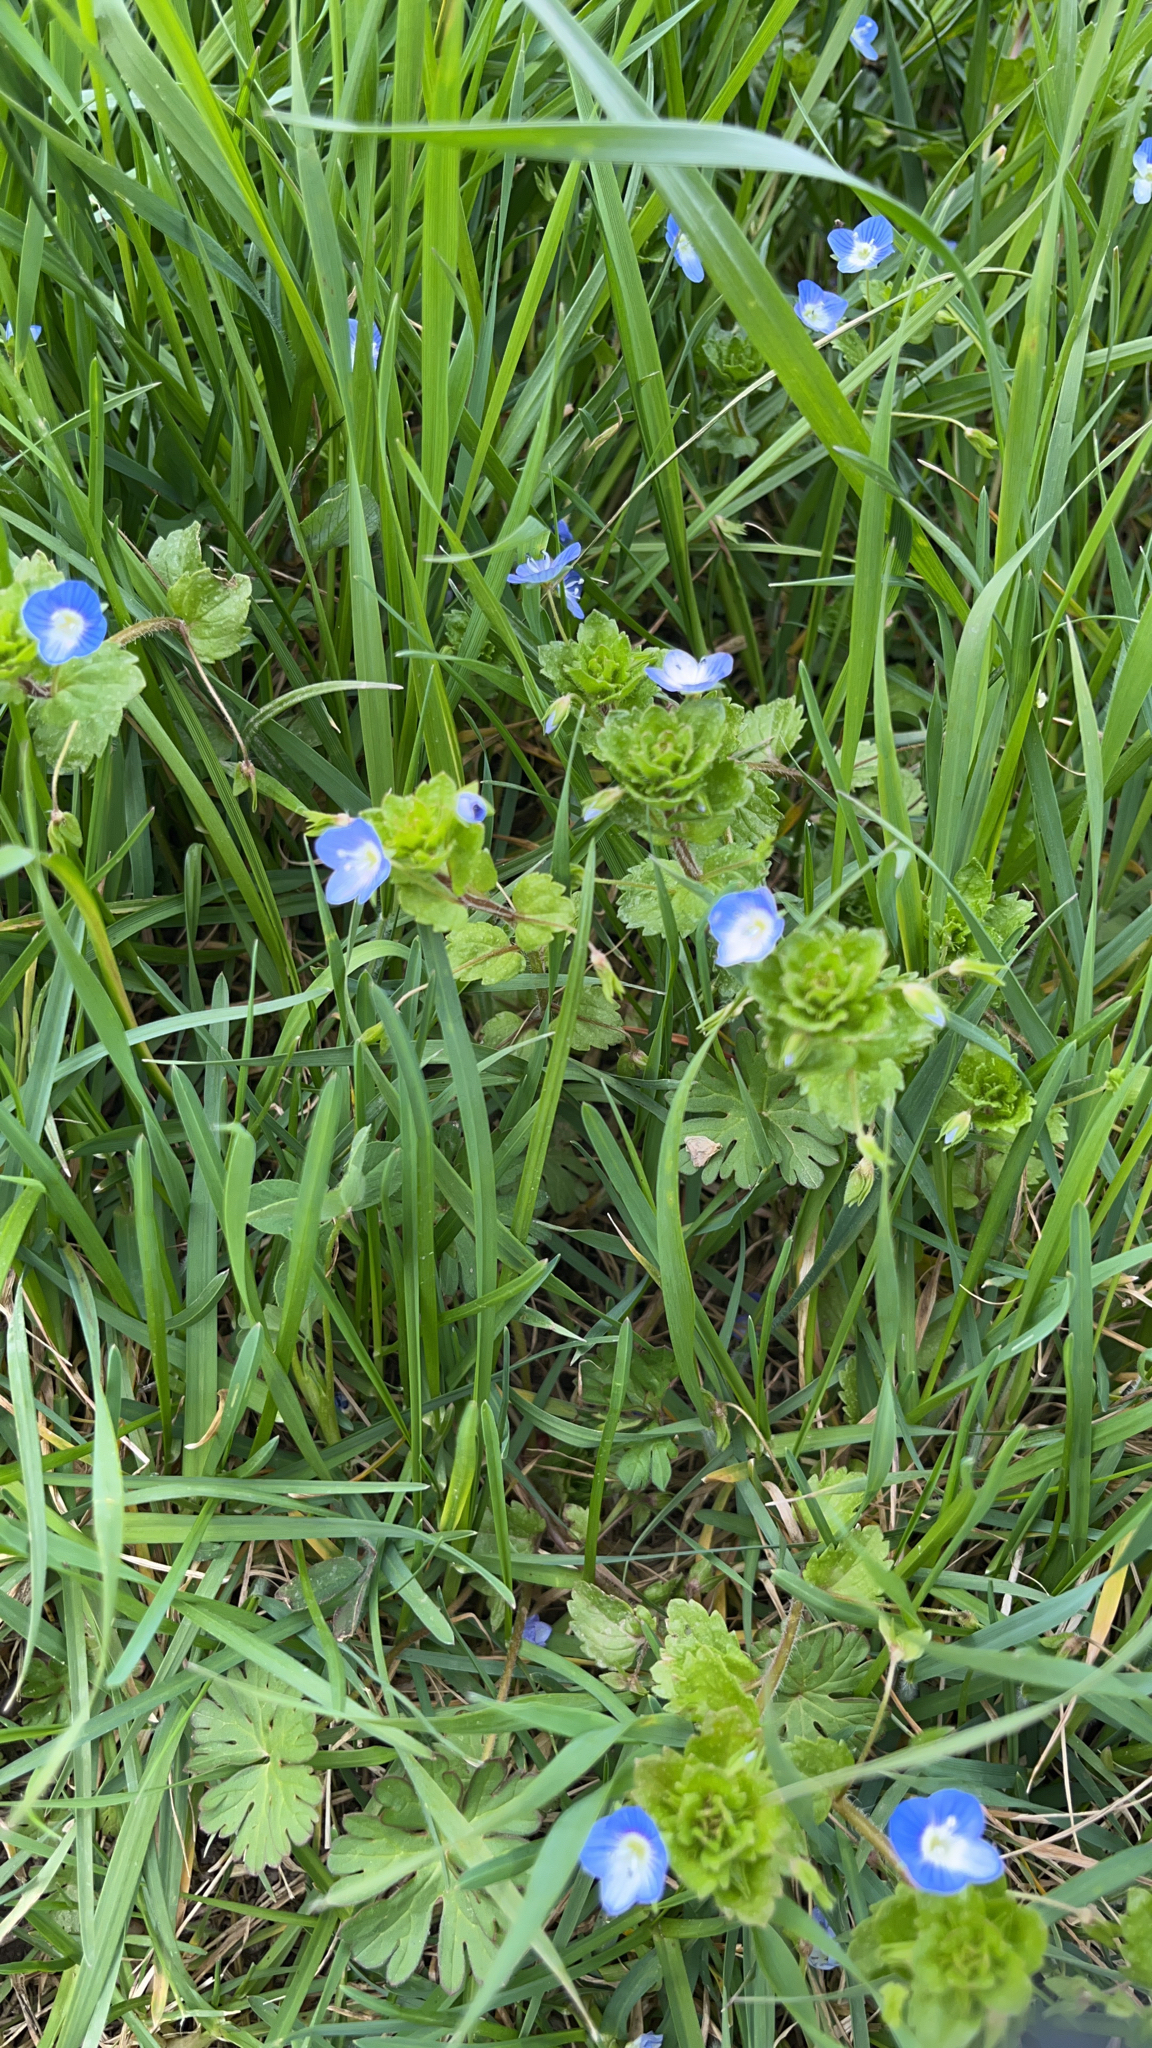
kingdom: Plantae
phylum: Tracheophyta
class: Magnoliopsida
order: Lamiales
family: Plantaginaceae
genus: Veronica
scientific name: Veronica persica
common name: Common field-speedwell
